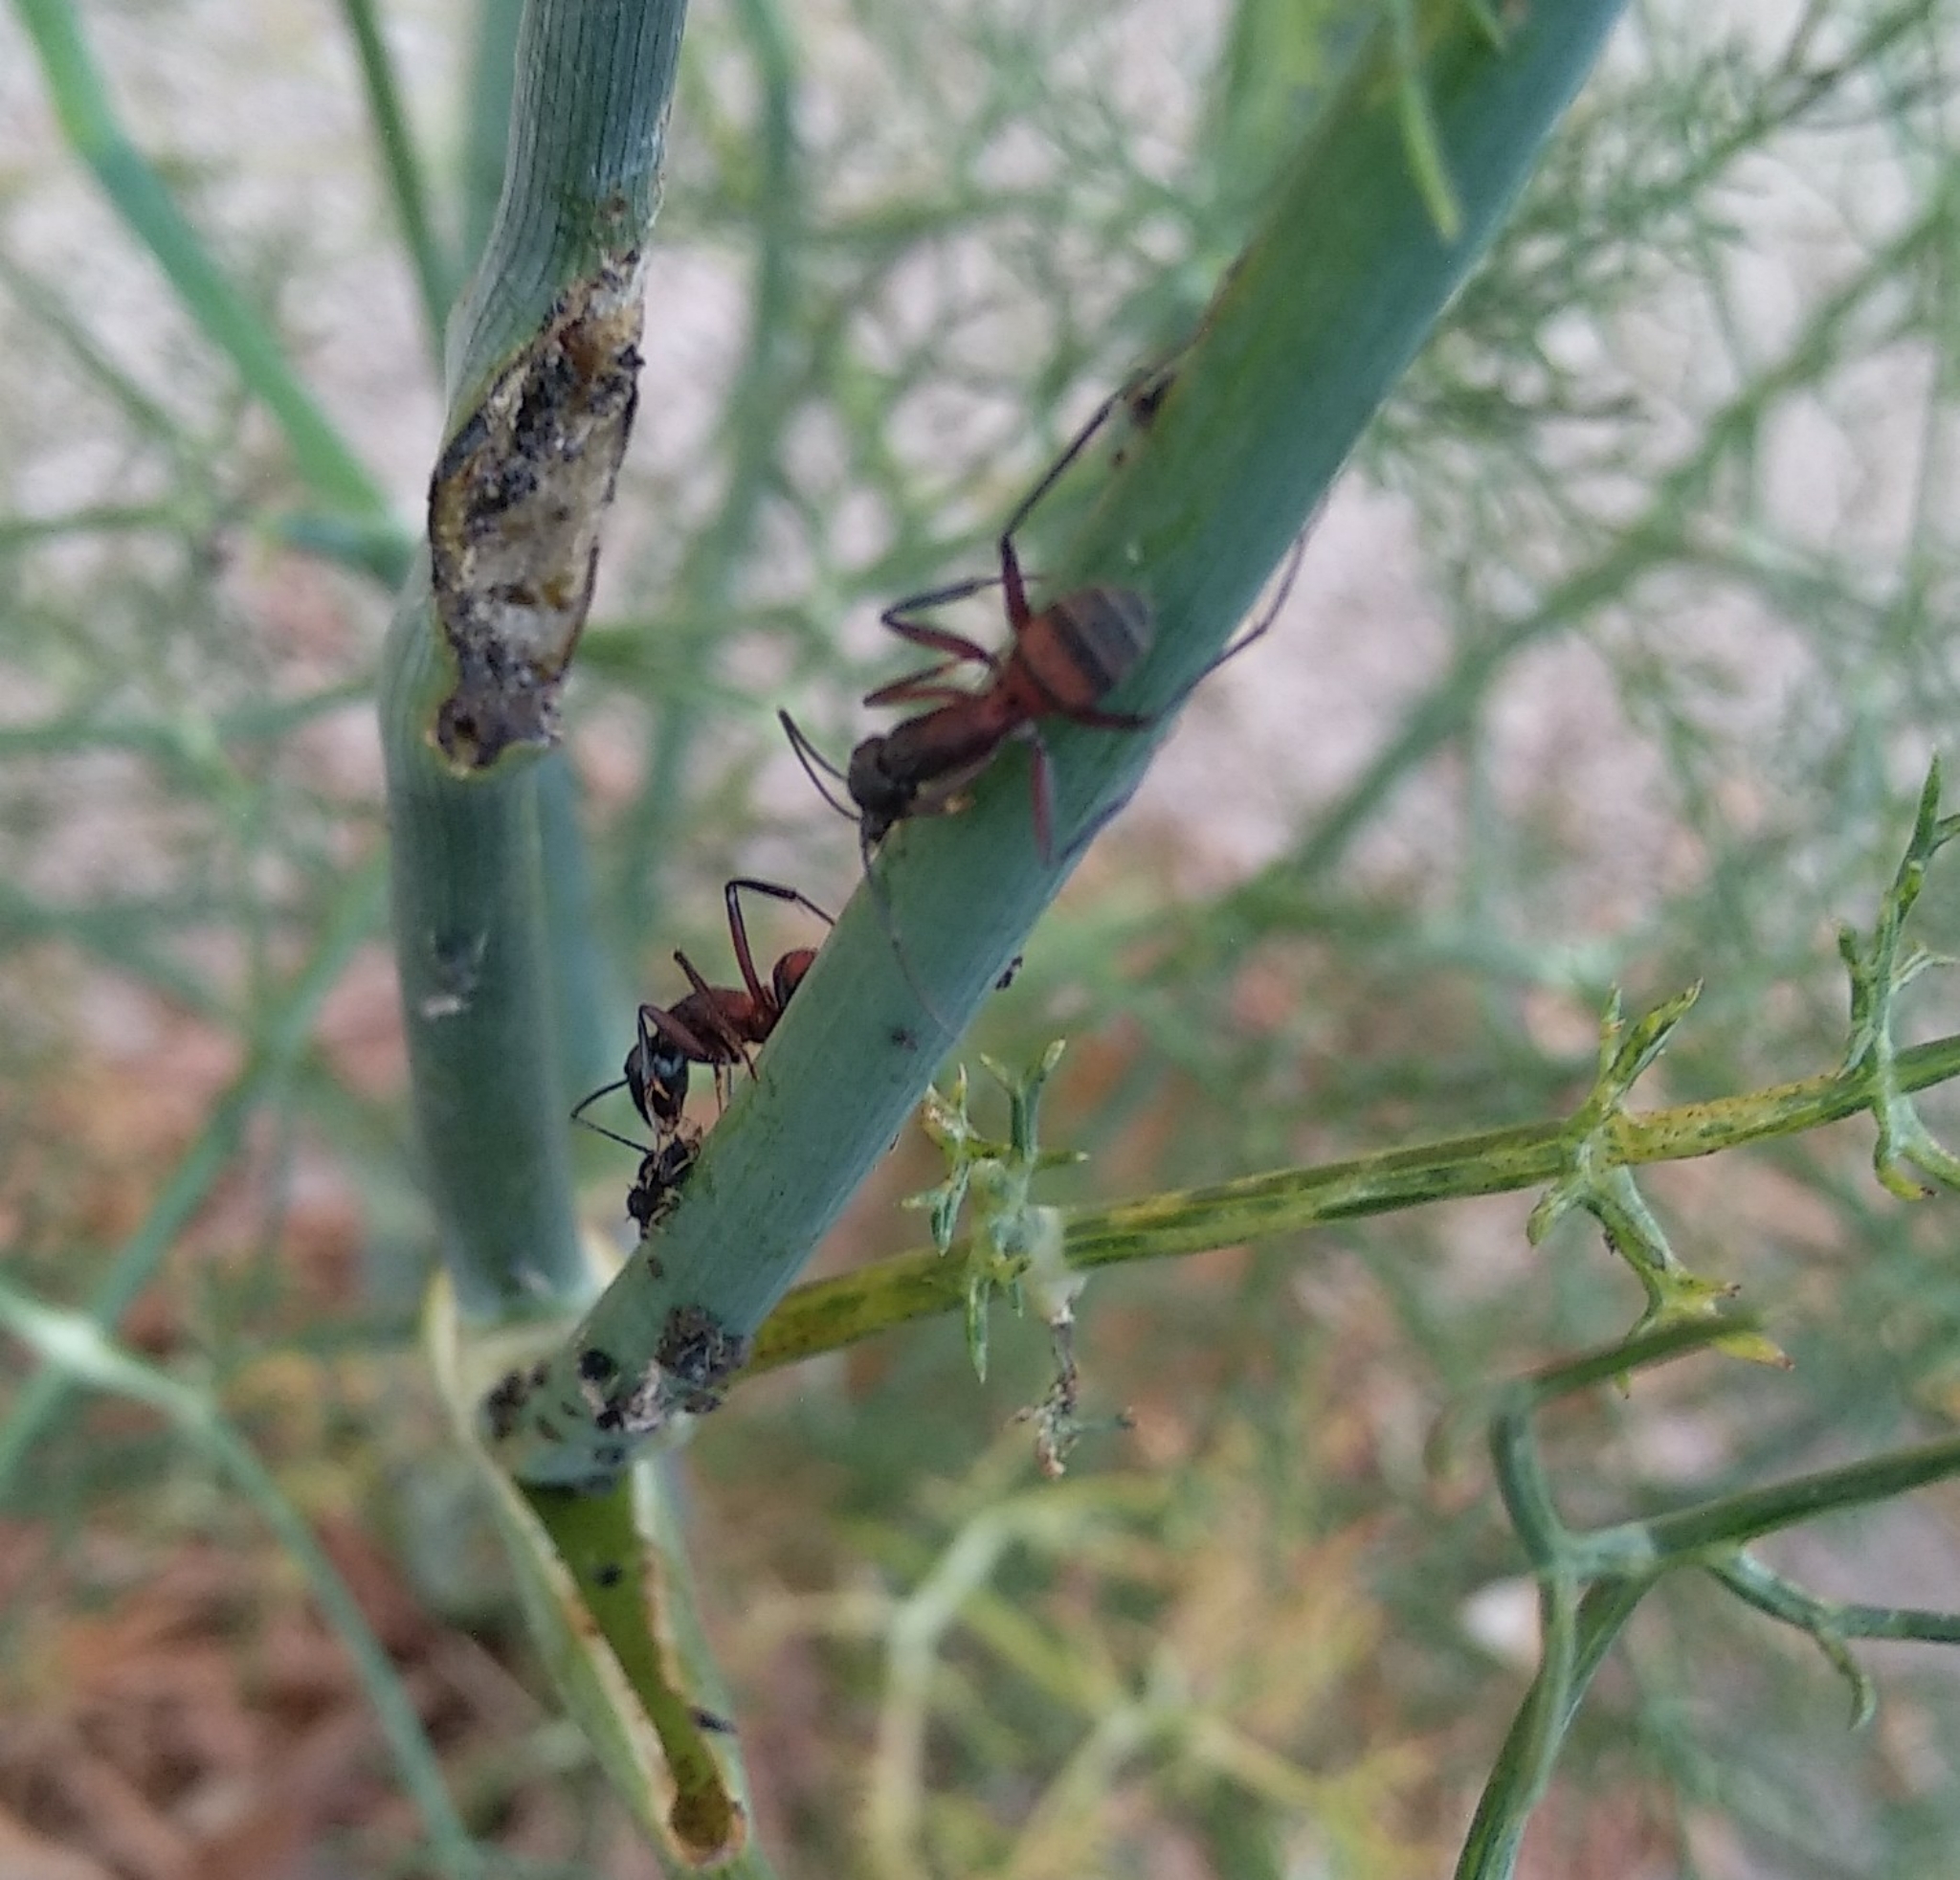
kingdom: Animalia
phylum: Arthropoda
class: Insecta
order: Hymenoptera
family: Formicidae
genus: Camponotus
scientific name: Camponotus cruentatus
